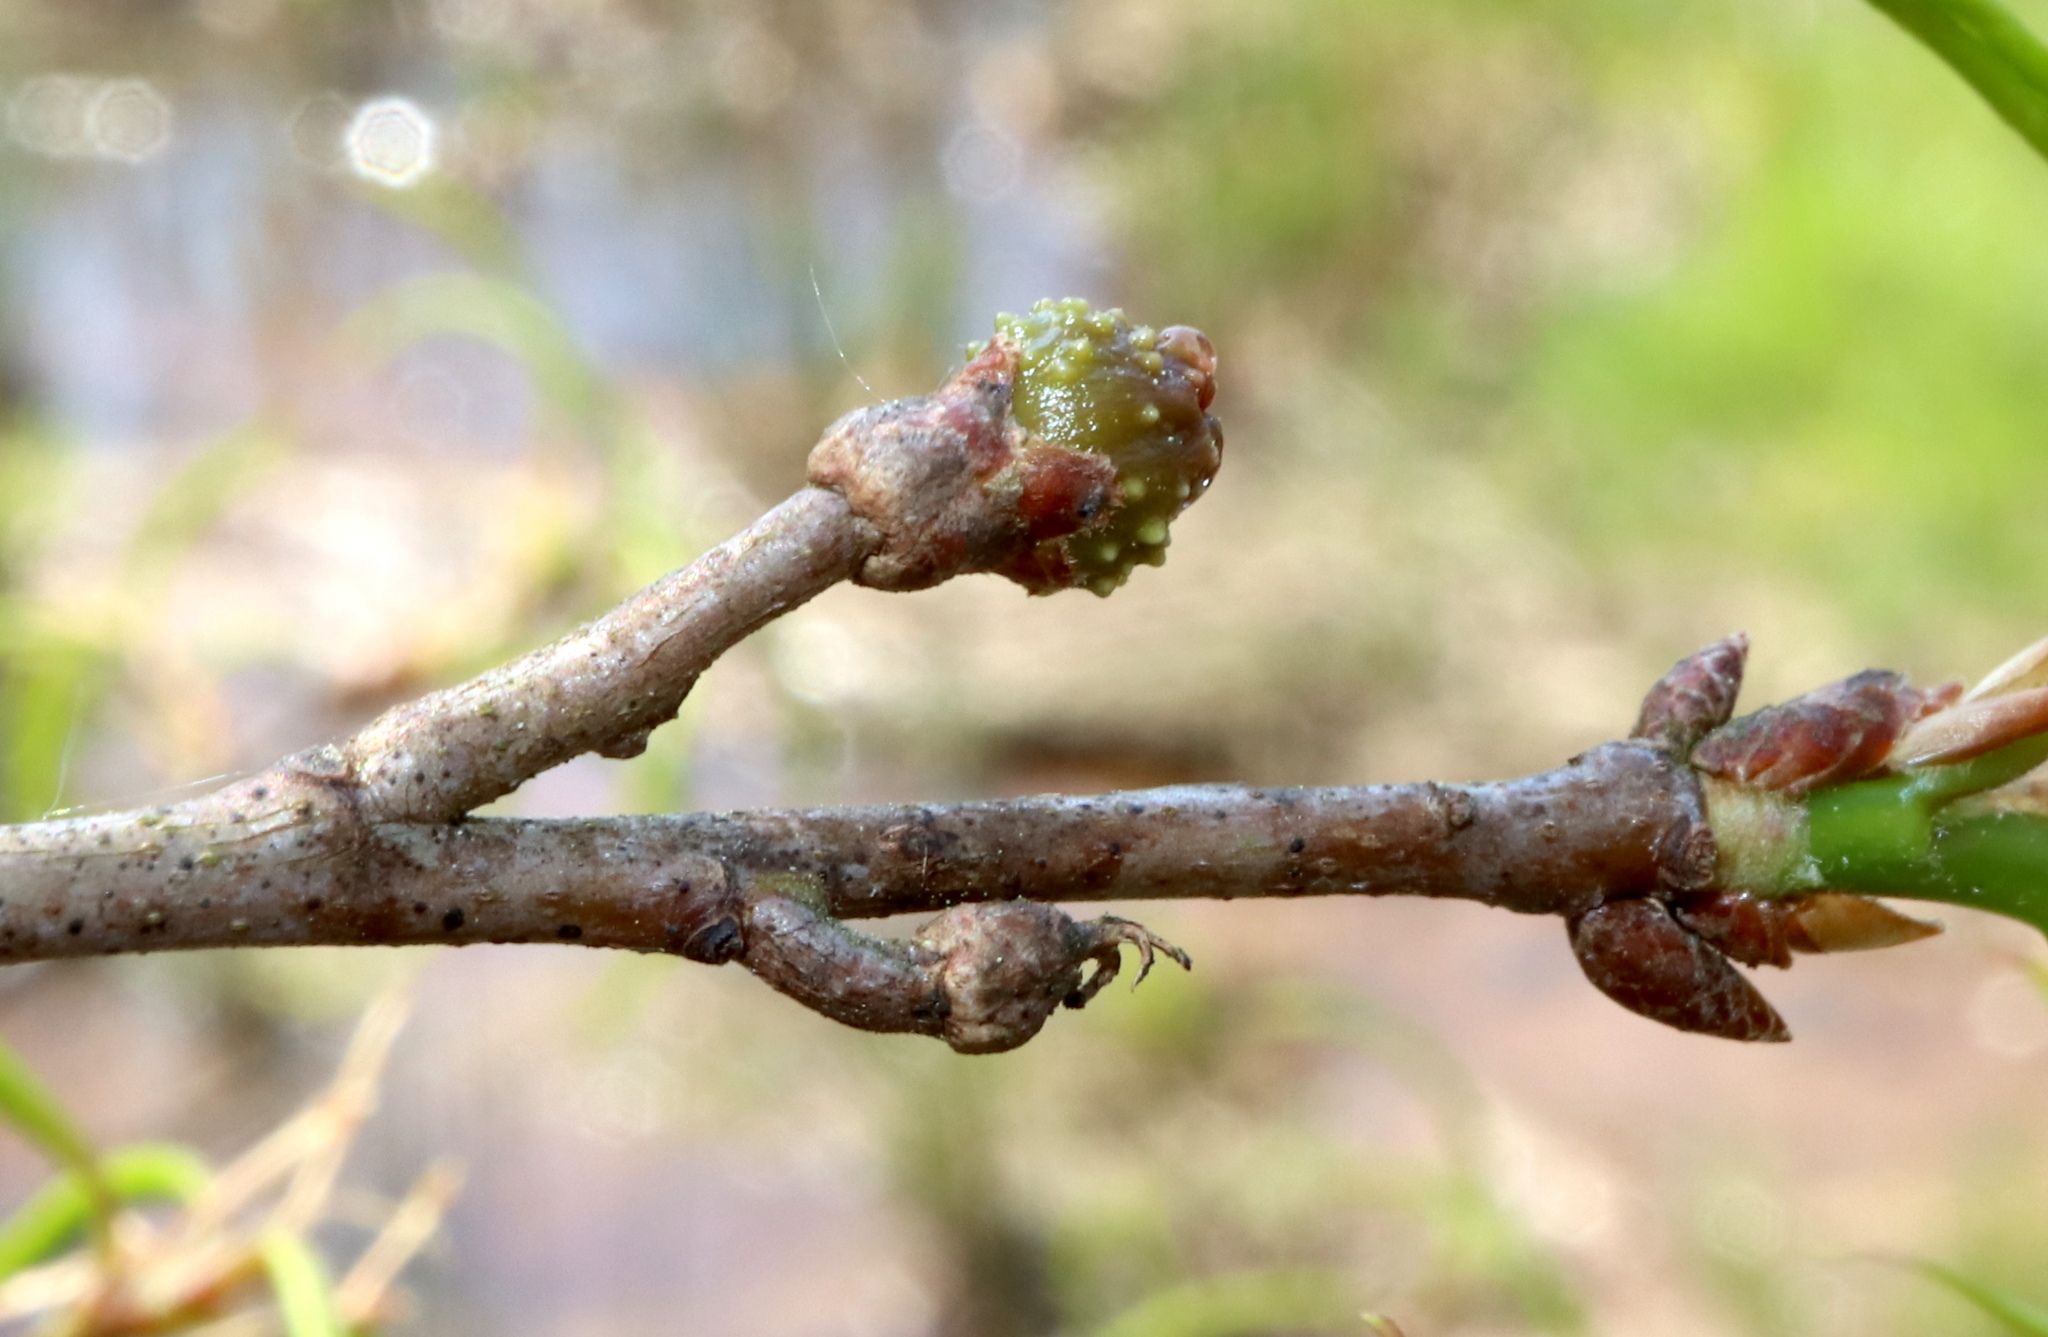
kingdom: Animalia
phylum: Arthropoda
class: Insecta
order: Hymenoptera
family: Cynipidae
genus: Callirhytis
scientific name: Callirhytis
